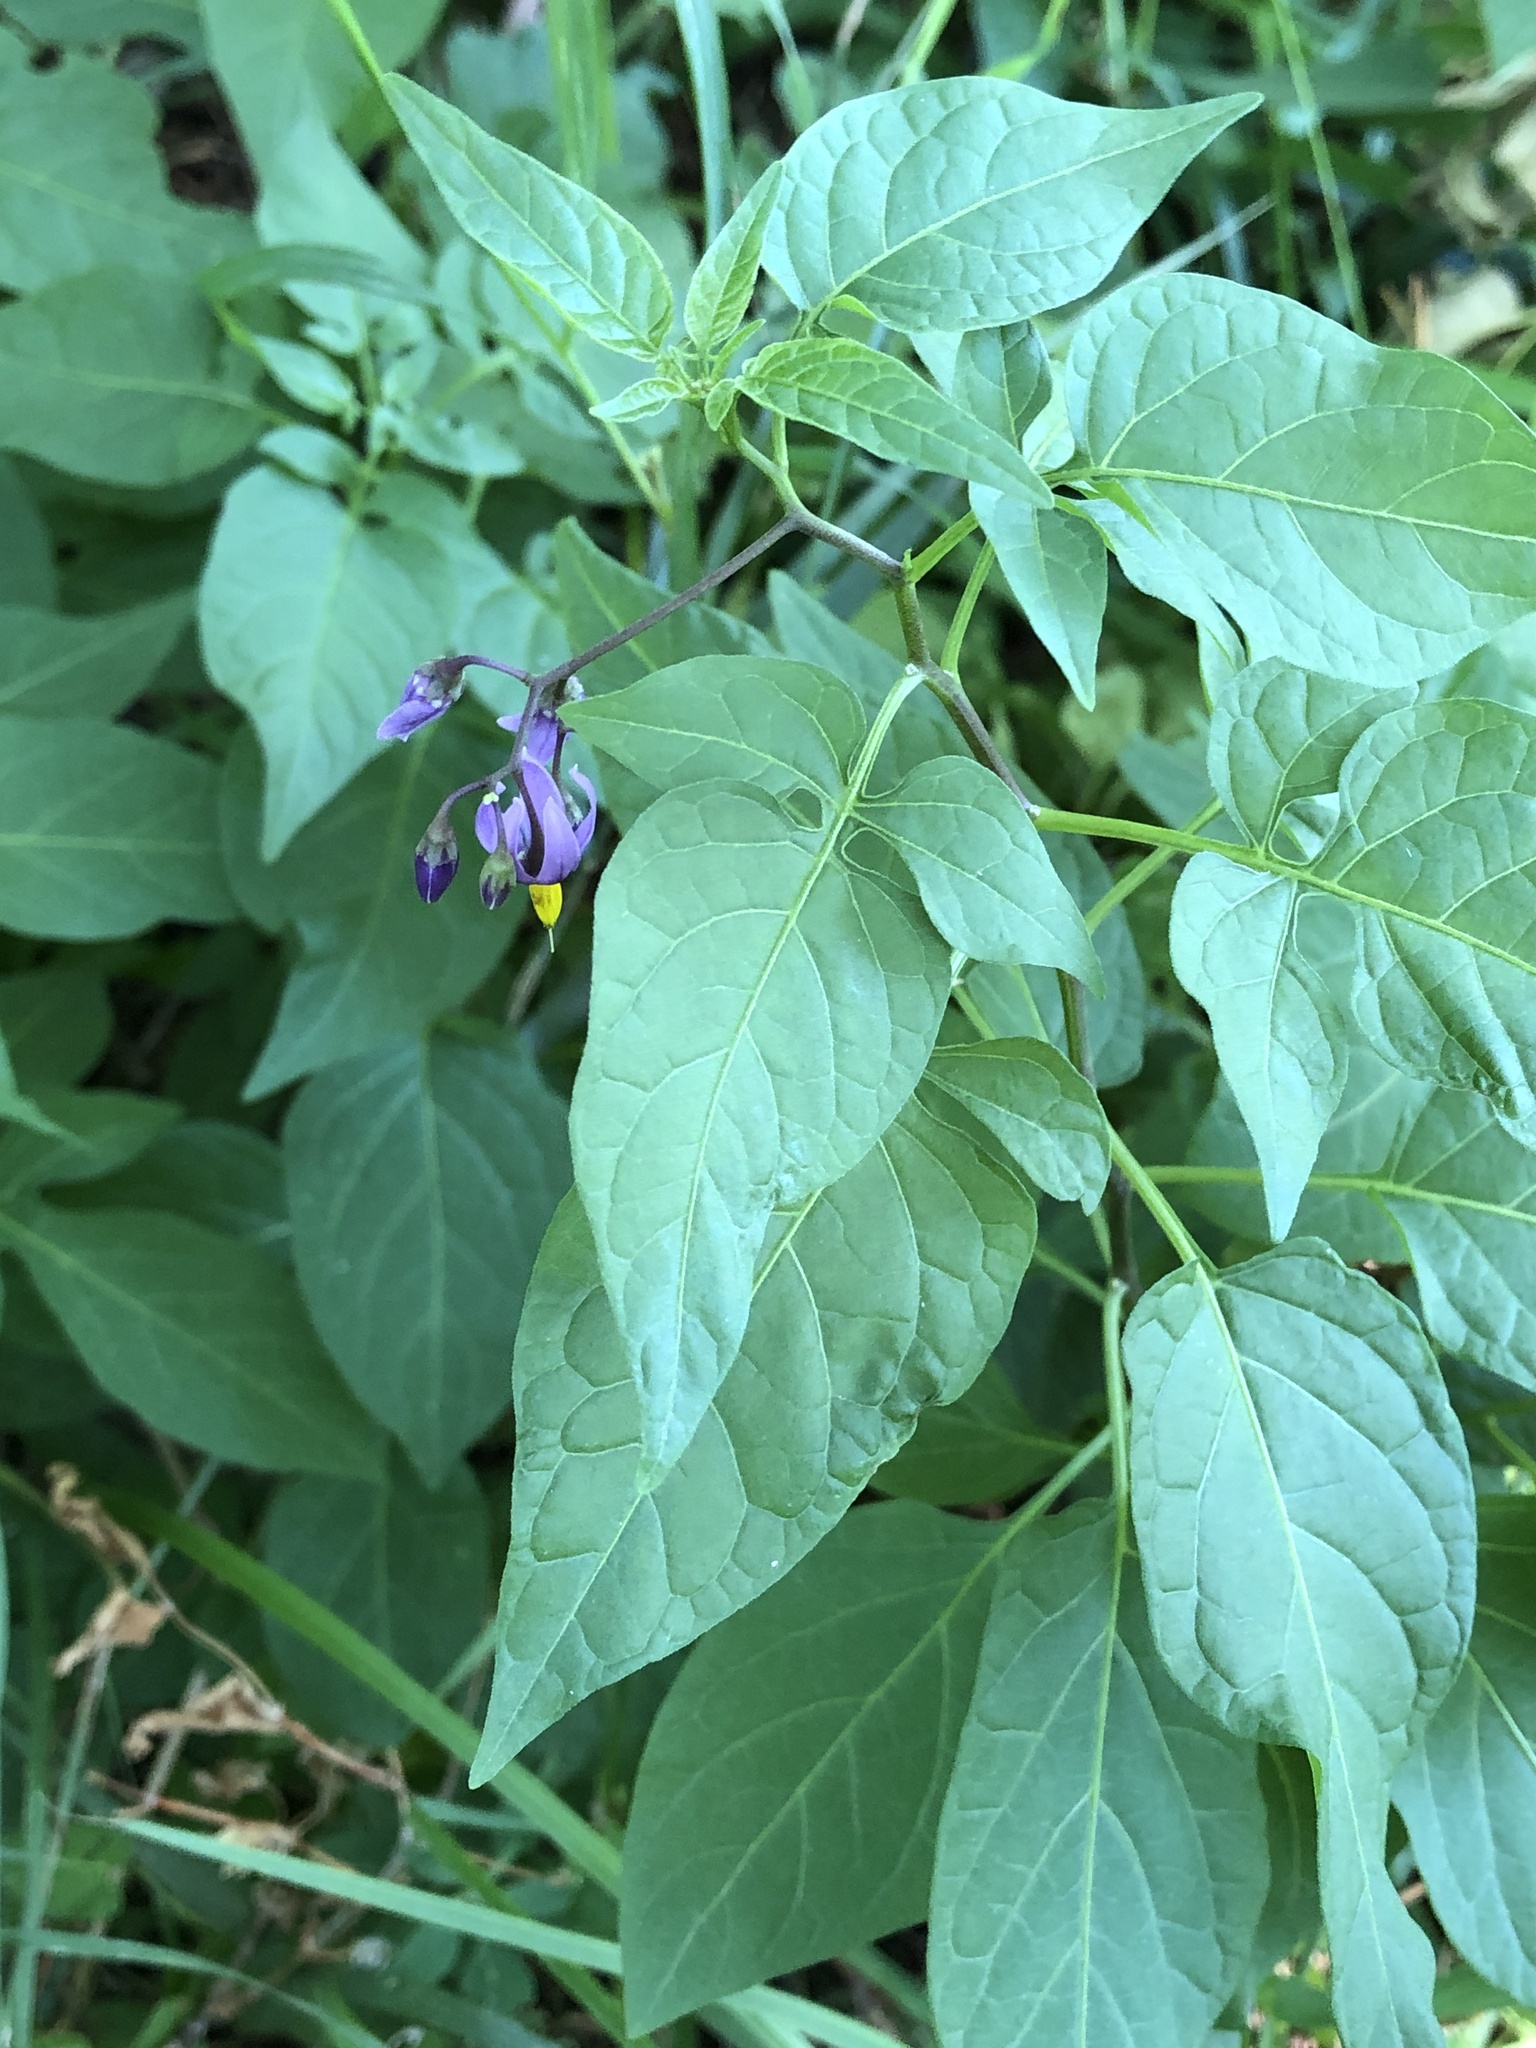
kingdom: Plantae
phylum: Tracheophyta
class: Magnoliopsida
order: Solanales
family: Solanaceae
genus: Solanum
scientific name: Solanum dulcamara
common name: Climbing nightshade
